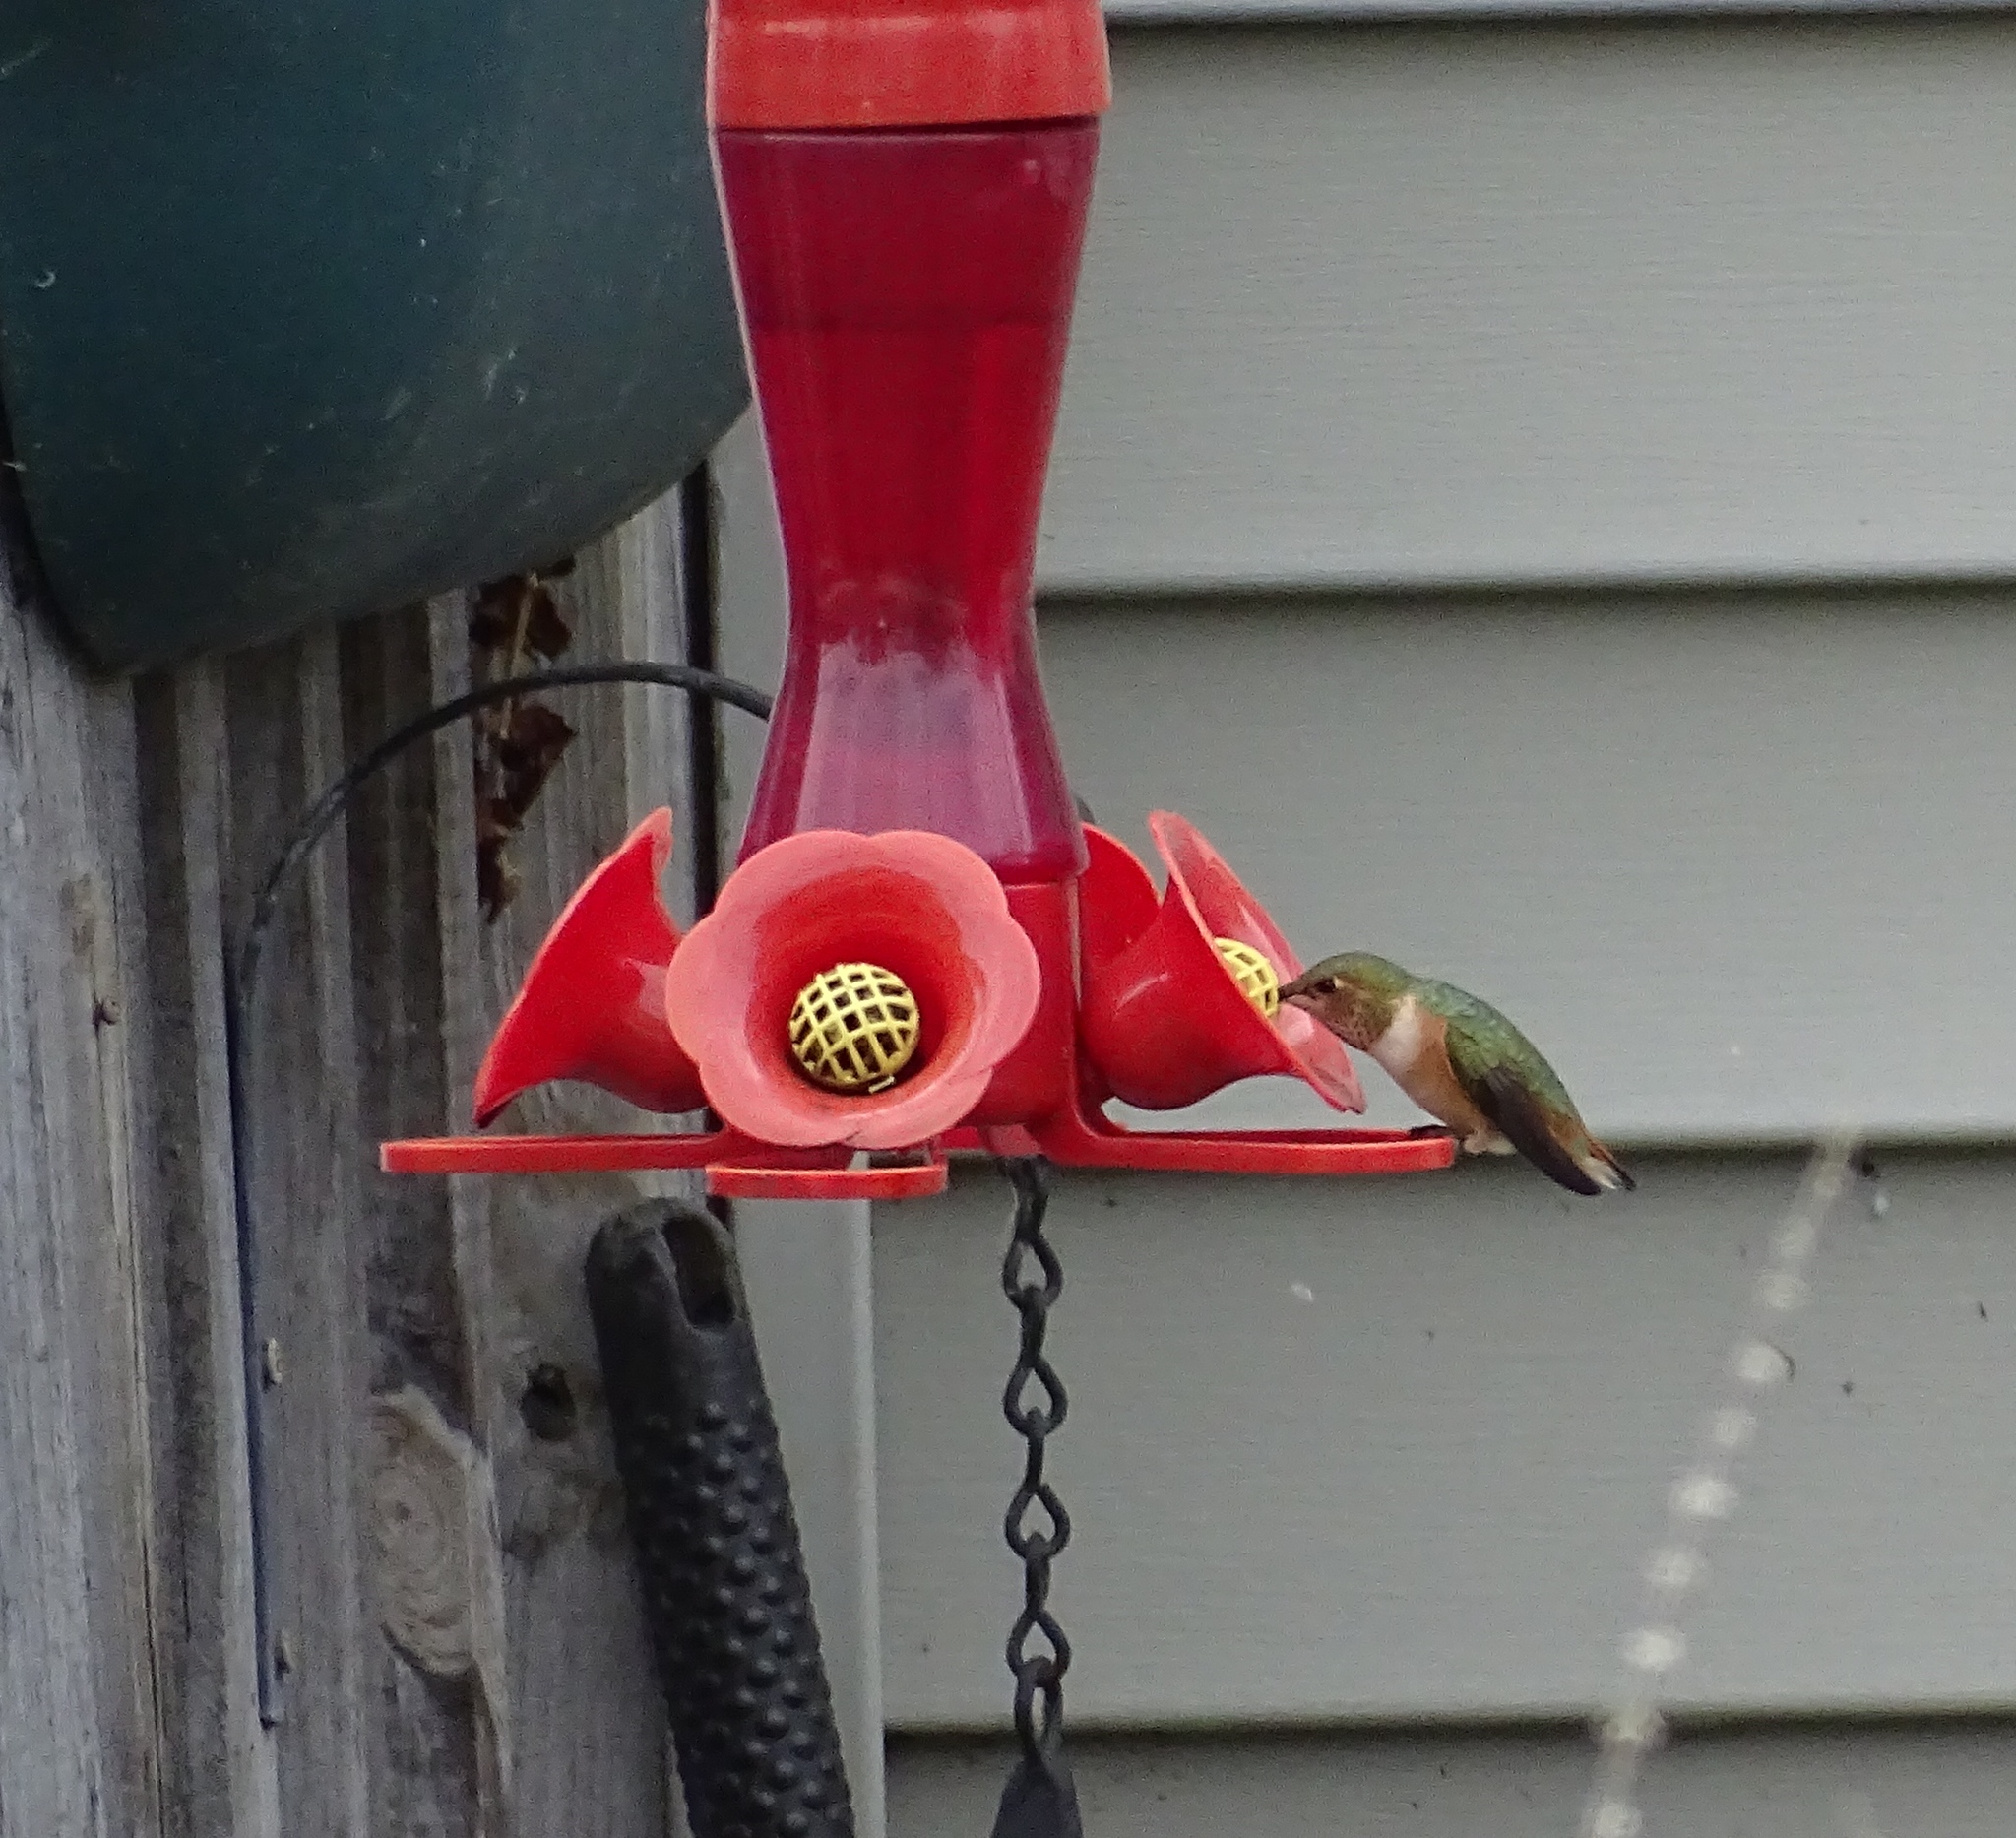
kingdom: Animalia
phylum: Chordata
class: Aves
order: Apodiformes
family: Trochilidae
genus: Selasphorus
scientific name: Selasphorus sasin
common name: Allen's hummingbird
